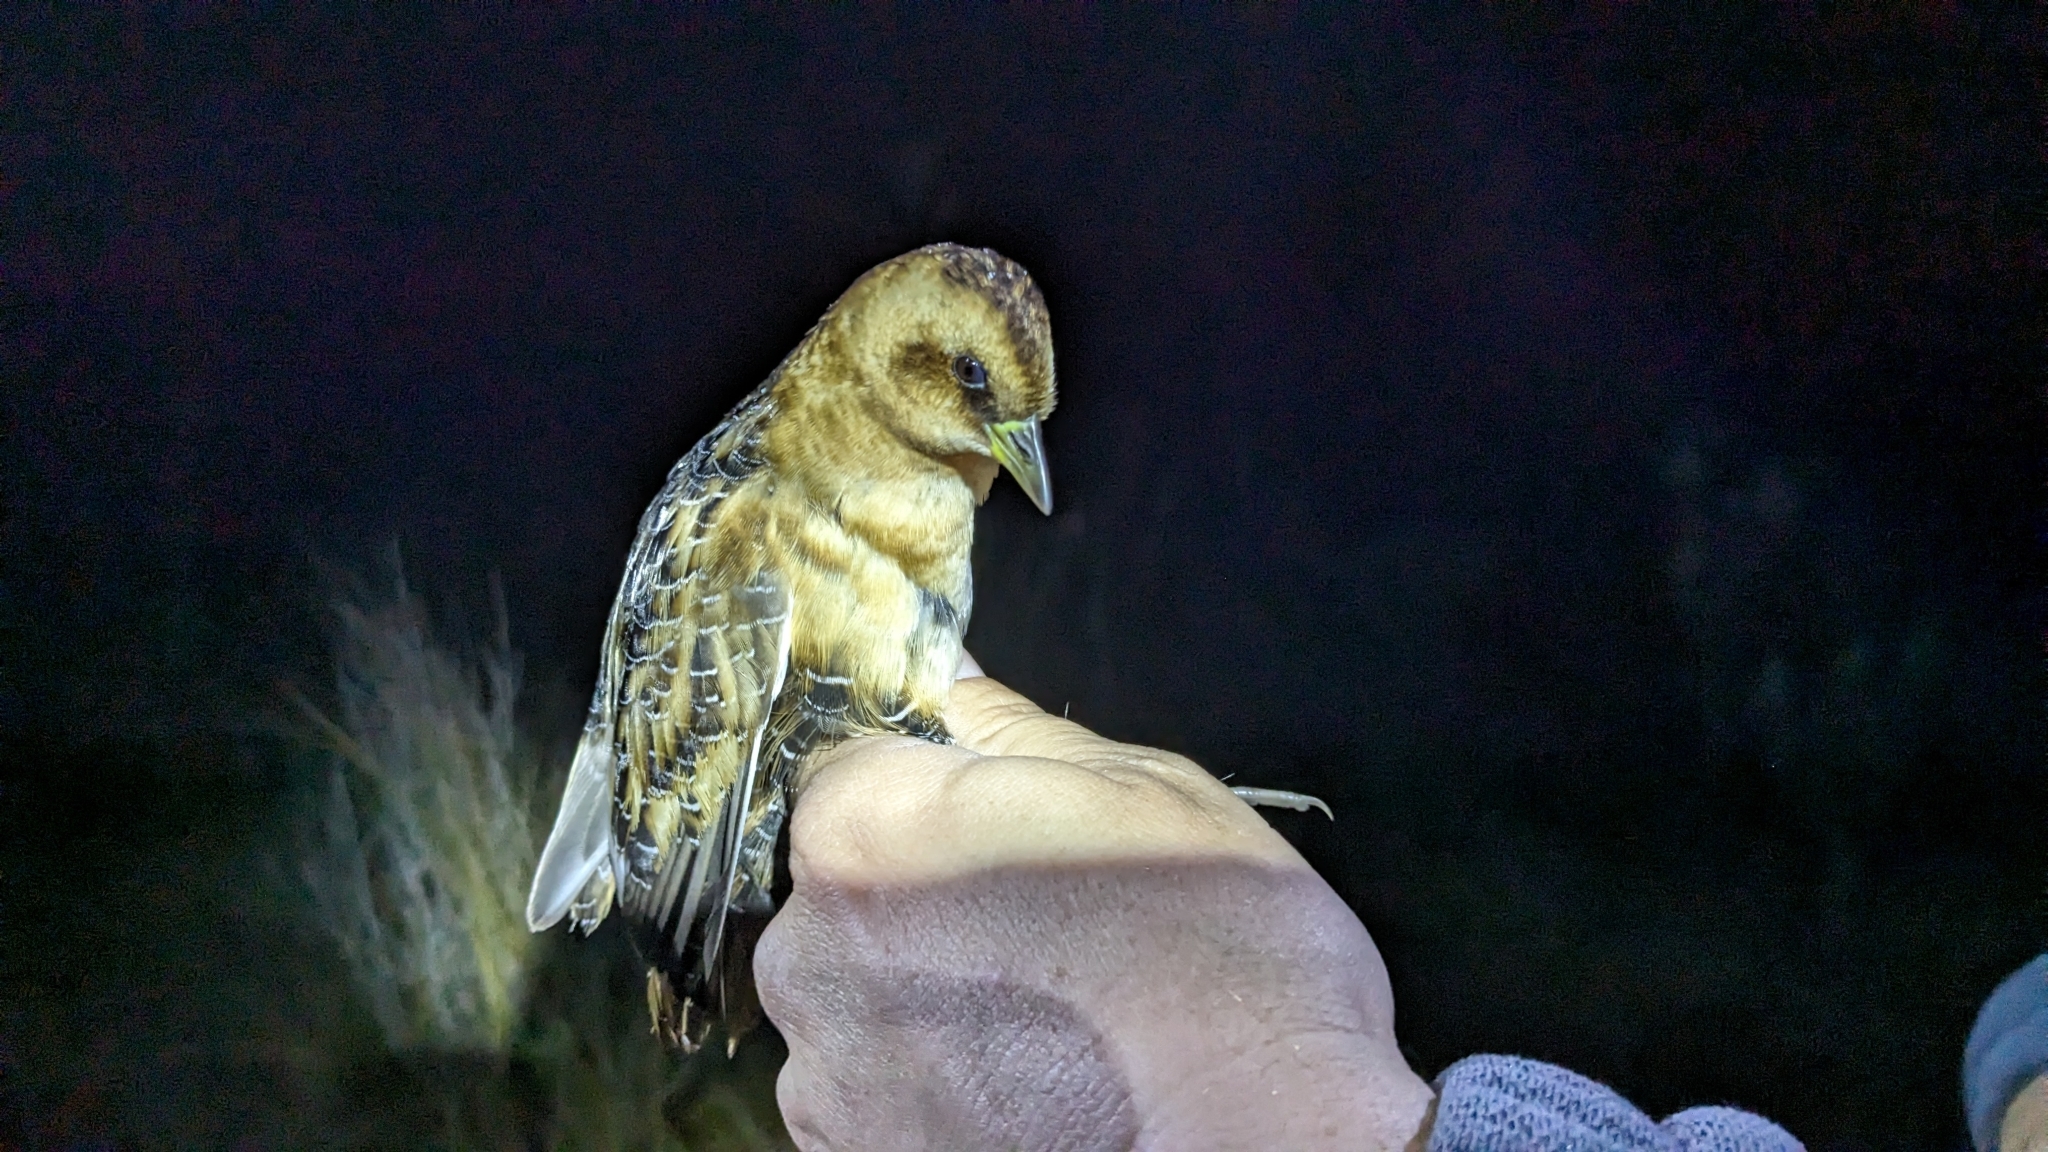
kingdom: Animalia
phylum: Chordata
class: Aves
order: Gruiformes
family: Rallidae
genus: Coturnicops
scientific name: Coturnicops noveboracensis
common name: Yellow rail
